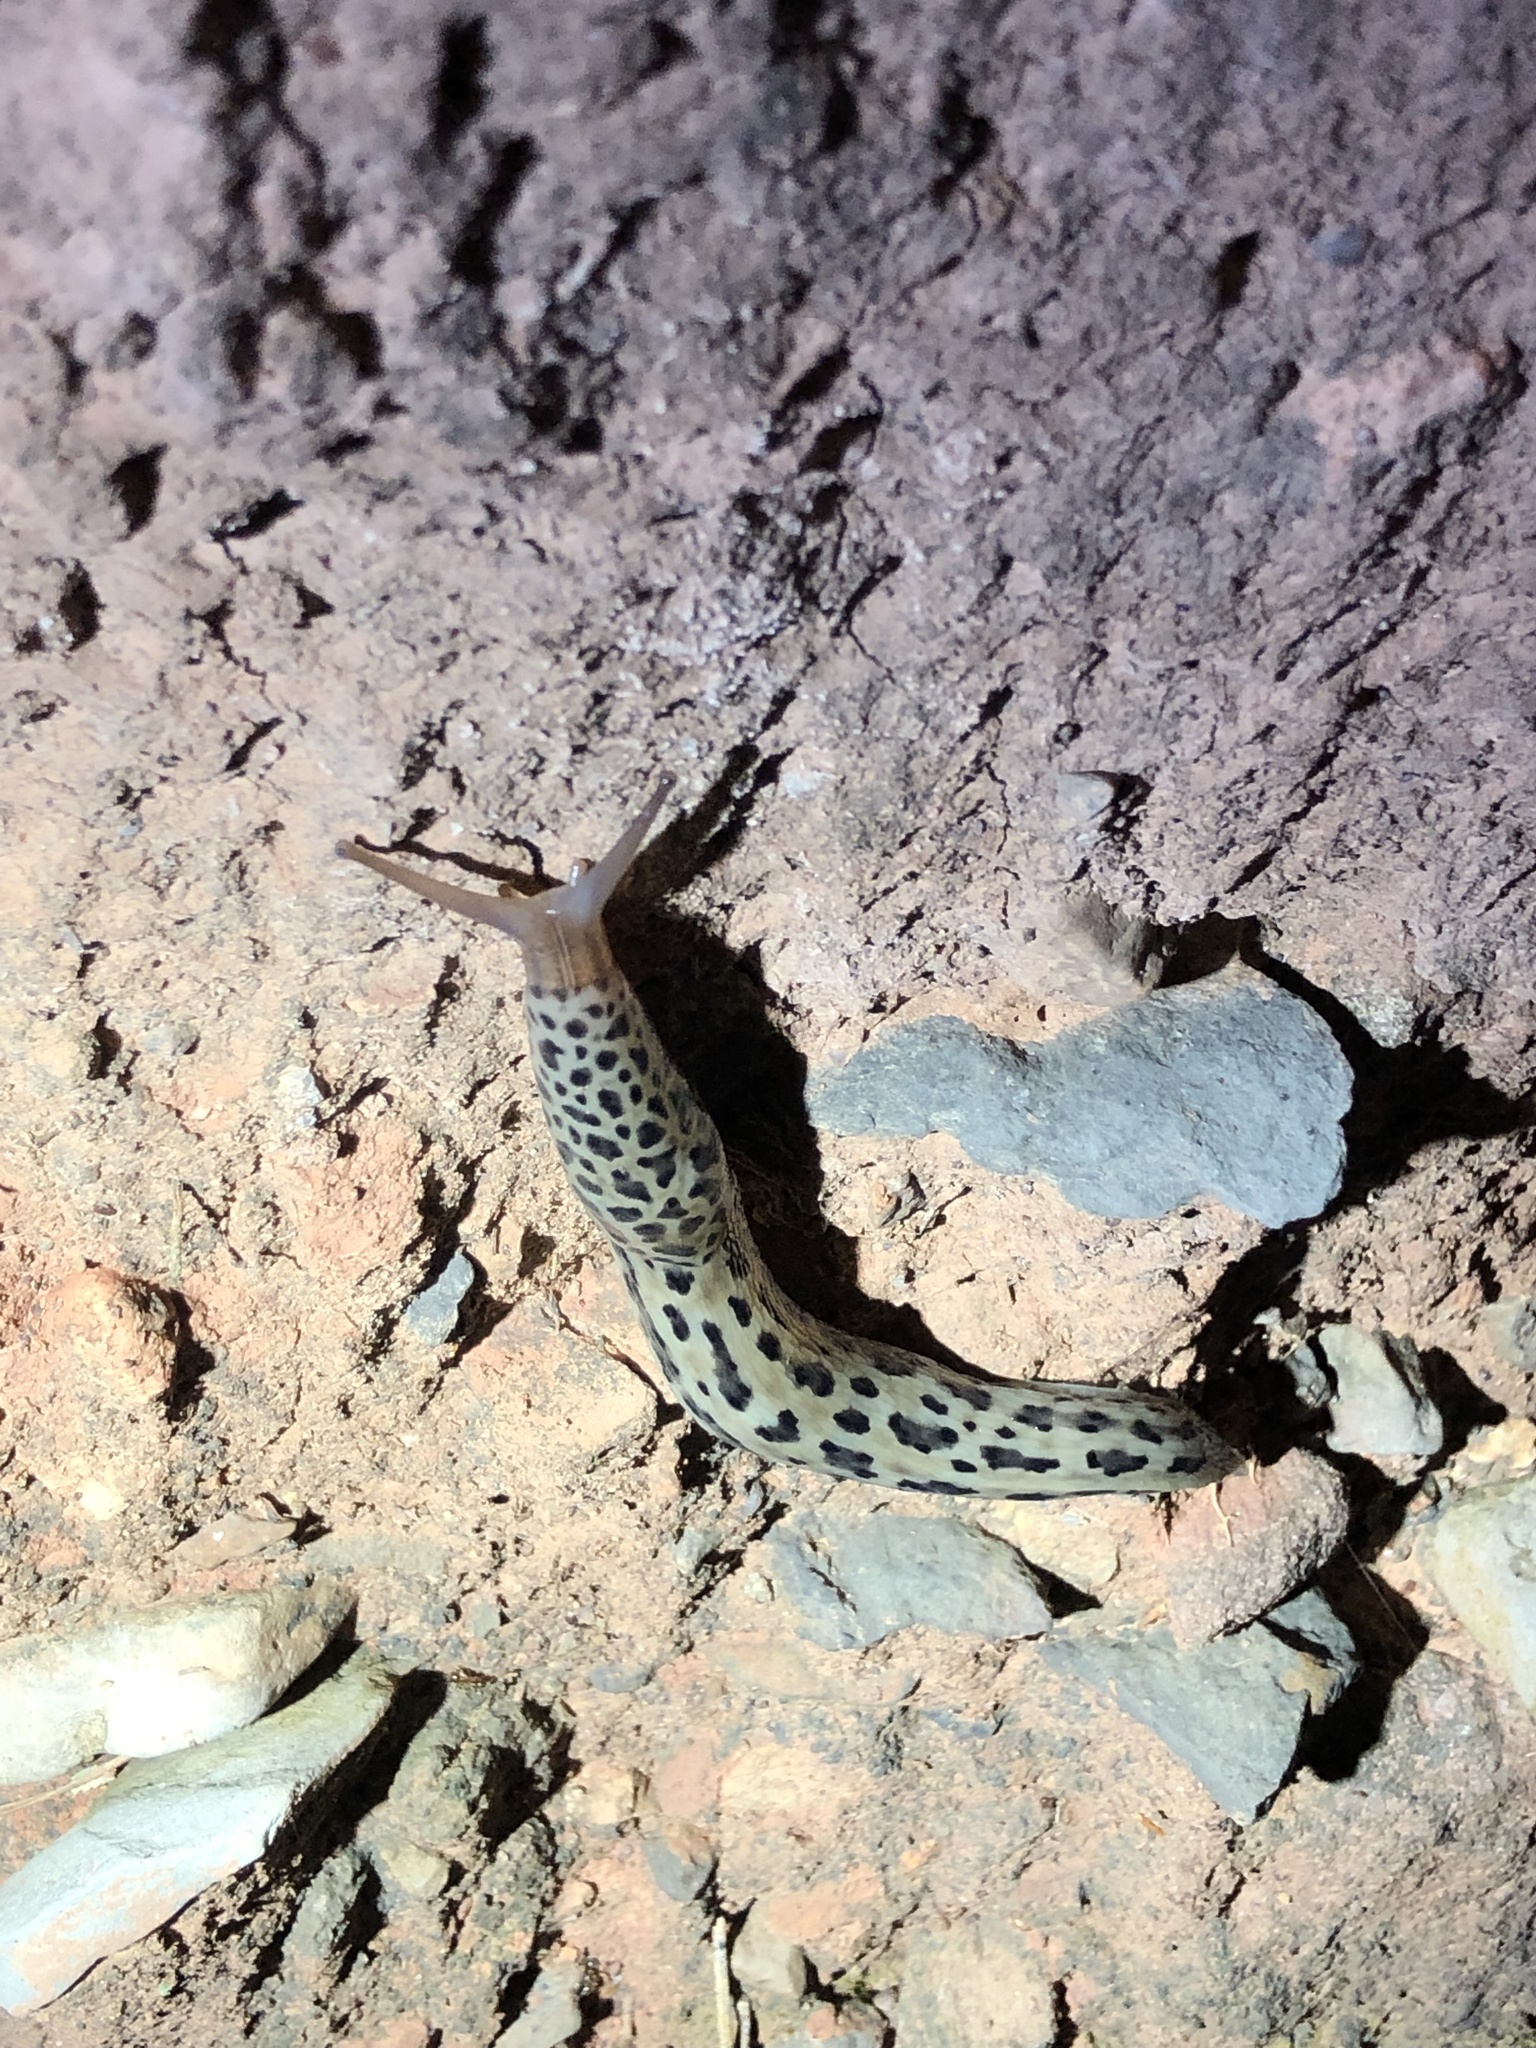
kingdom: Animalia
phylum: Mollusca
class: Gastropoda
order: Stylommatophora
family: Limacidae
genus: Limax
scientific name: Limax maximus
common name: Great grey slug
